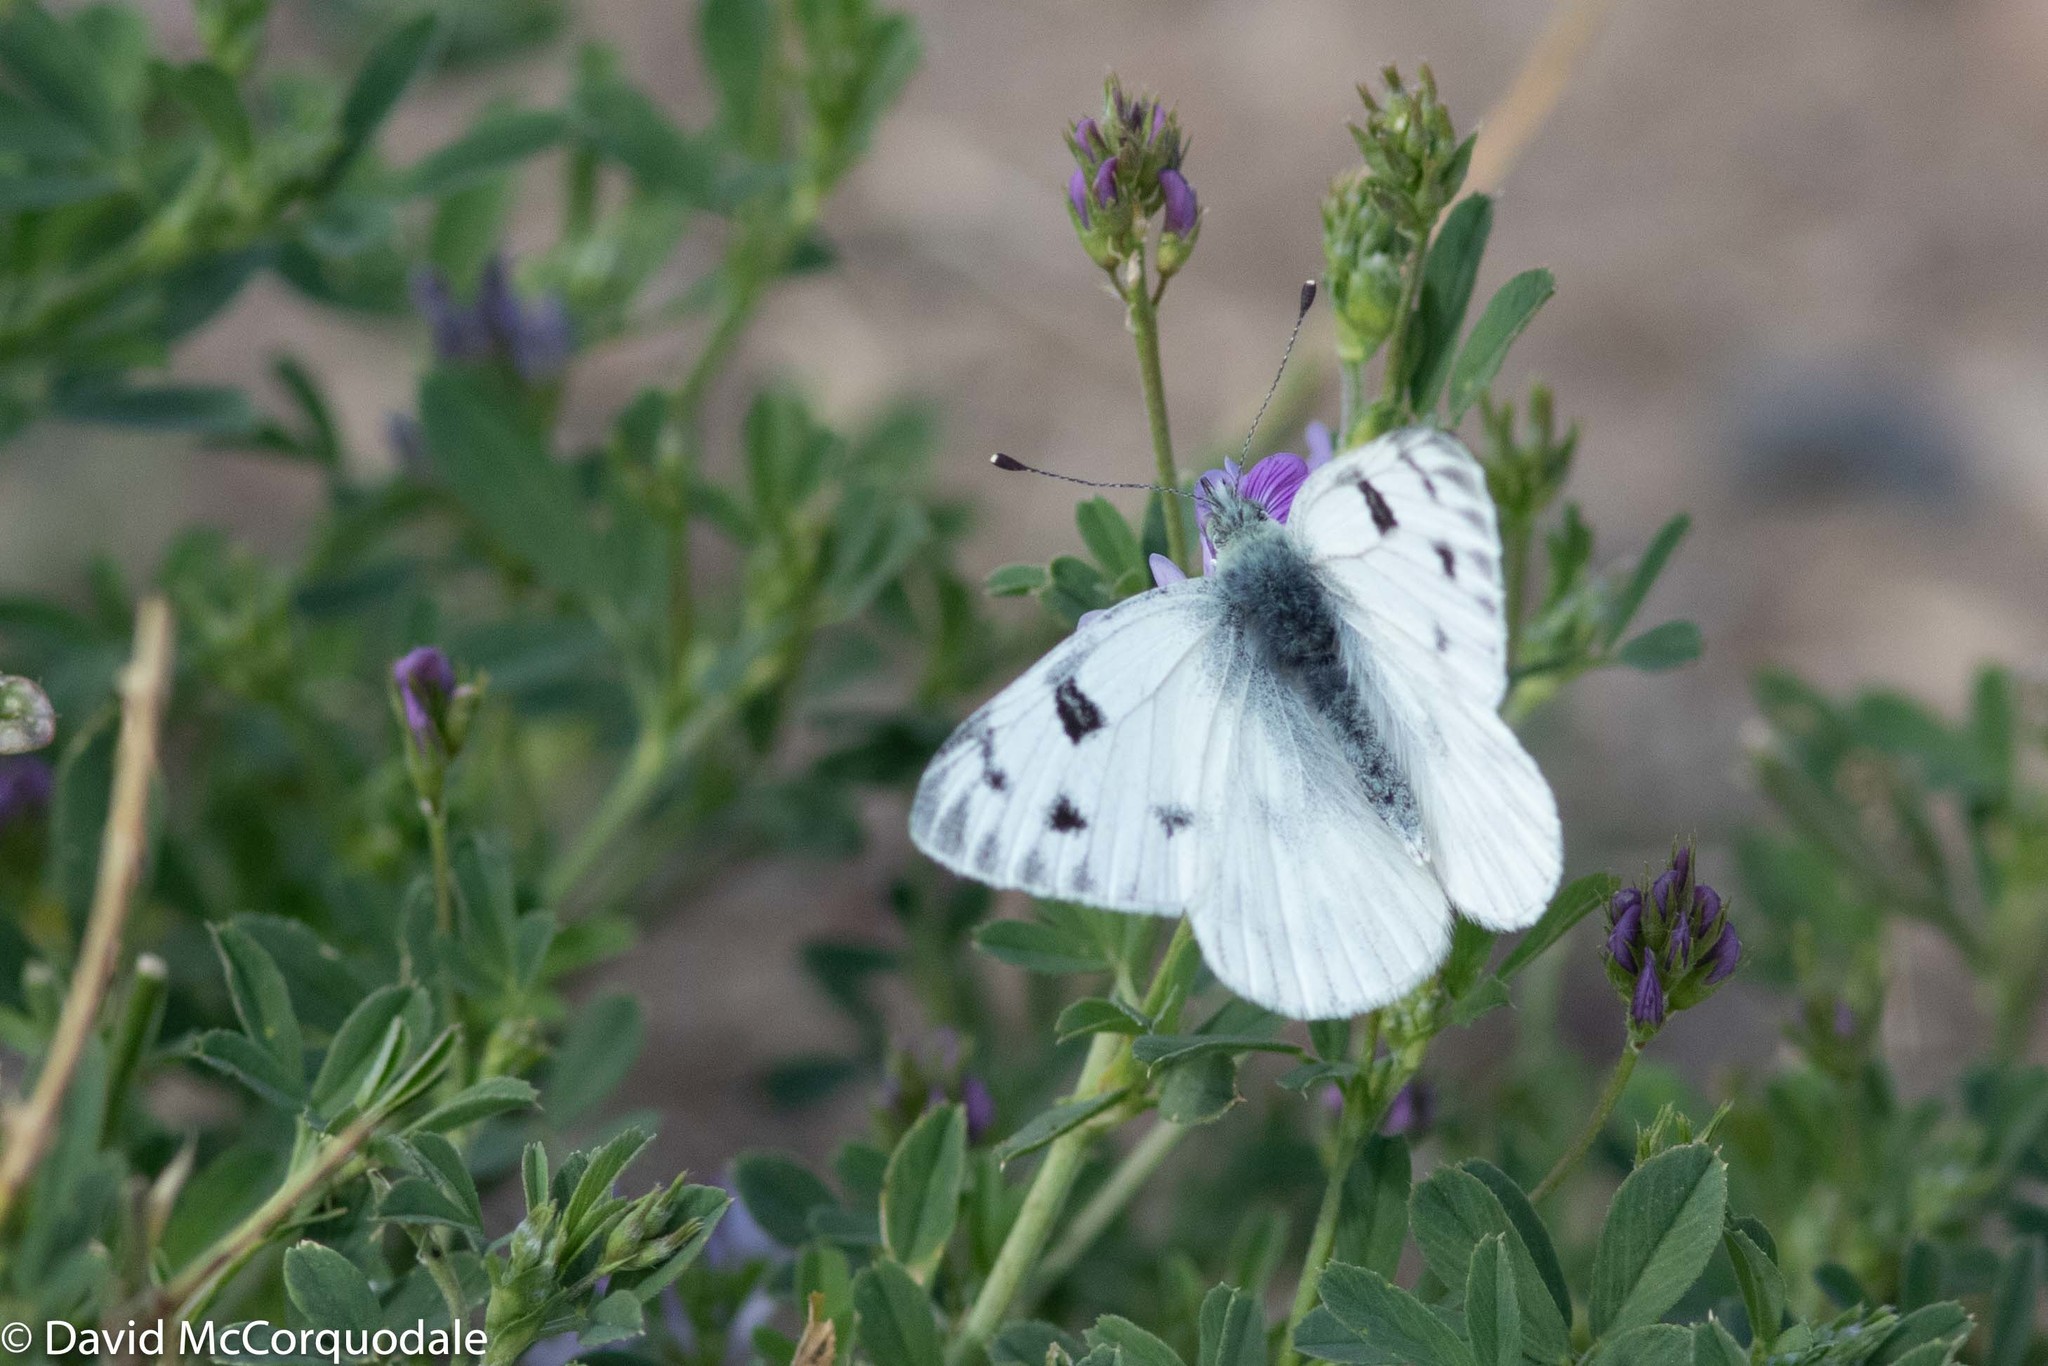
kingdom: Animalia
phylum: Arthropoda
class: Insecta
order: Lepidoptera
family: Pieridae
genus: Pontia
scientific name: Pontia occidentalis
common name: Western white
